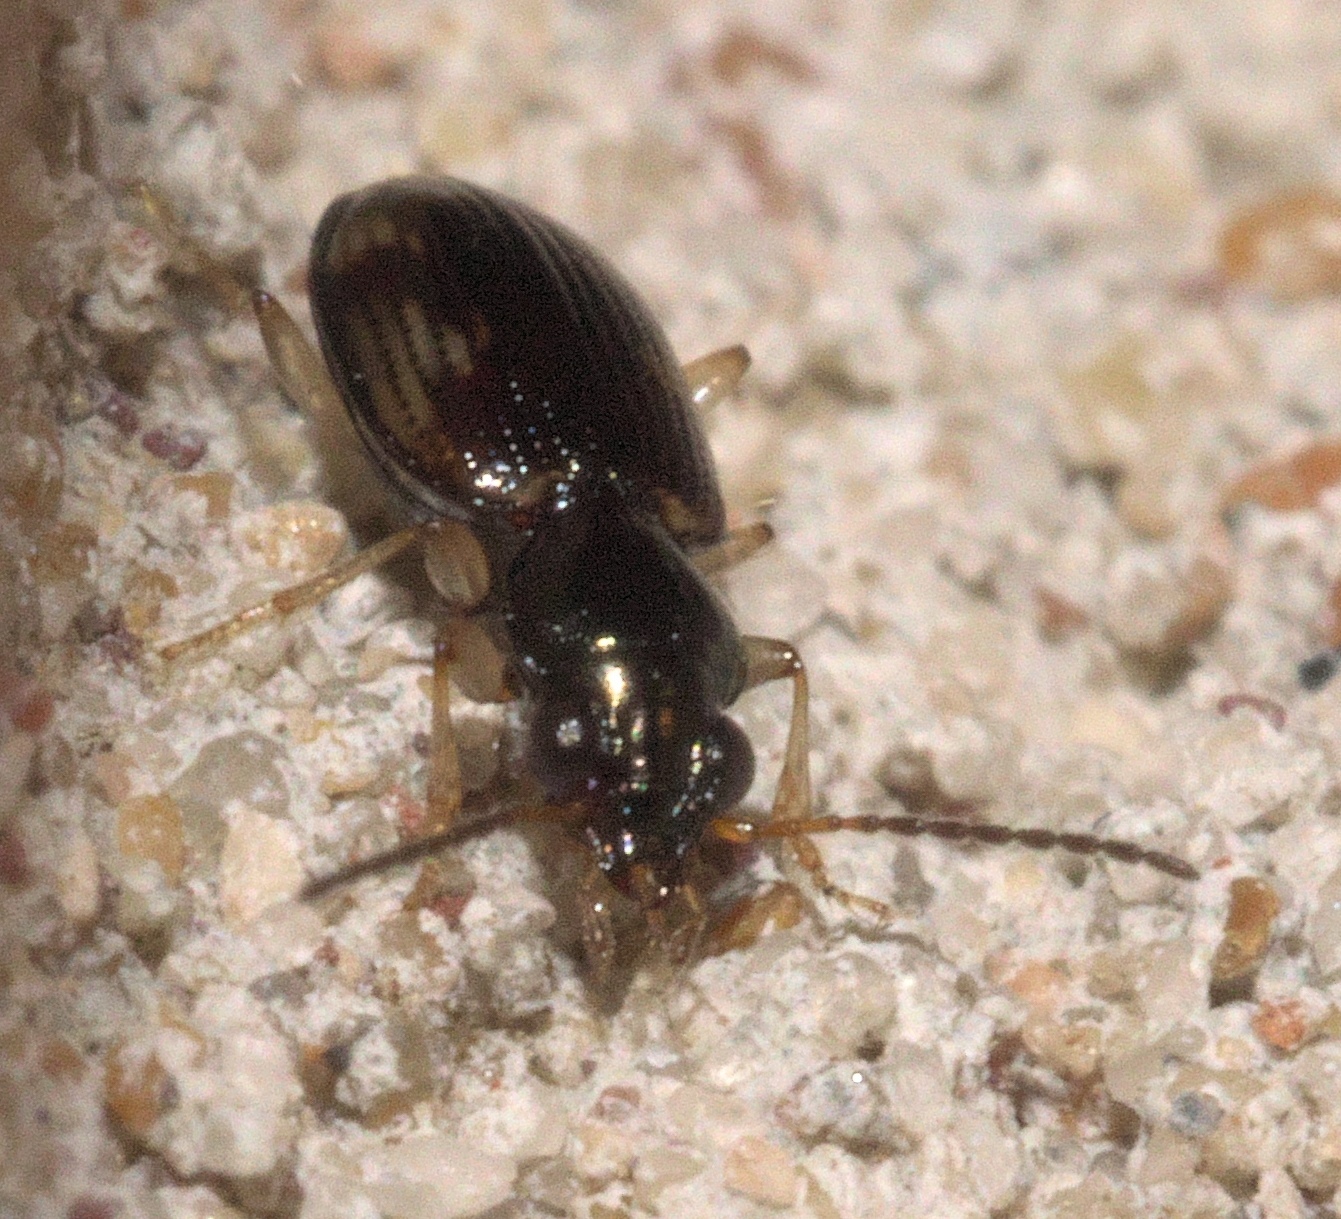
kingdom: Animalia
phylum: Arthropoda
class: Insecta
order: Coleoptera
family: Carabidae
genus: Bembidion
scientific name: Bembidion affine
